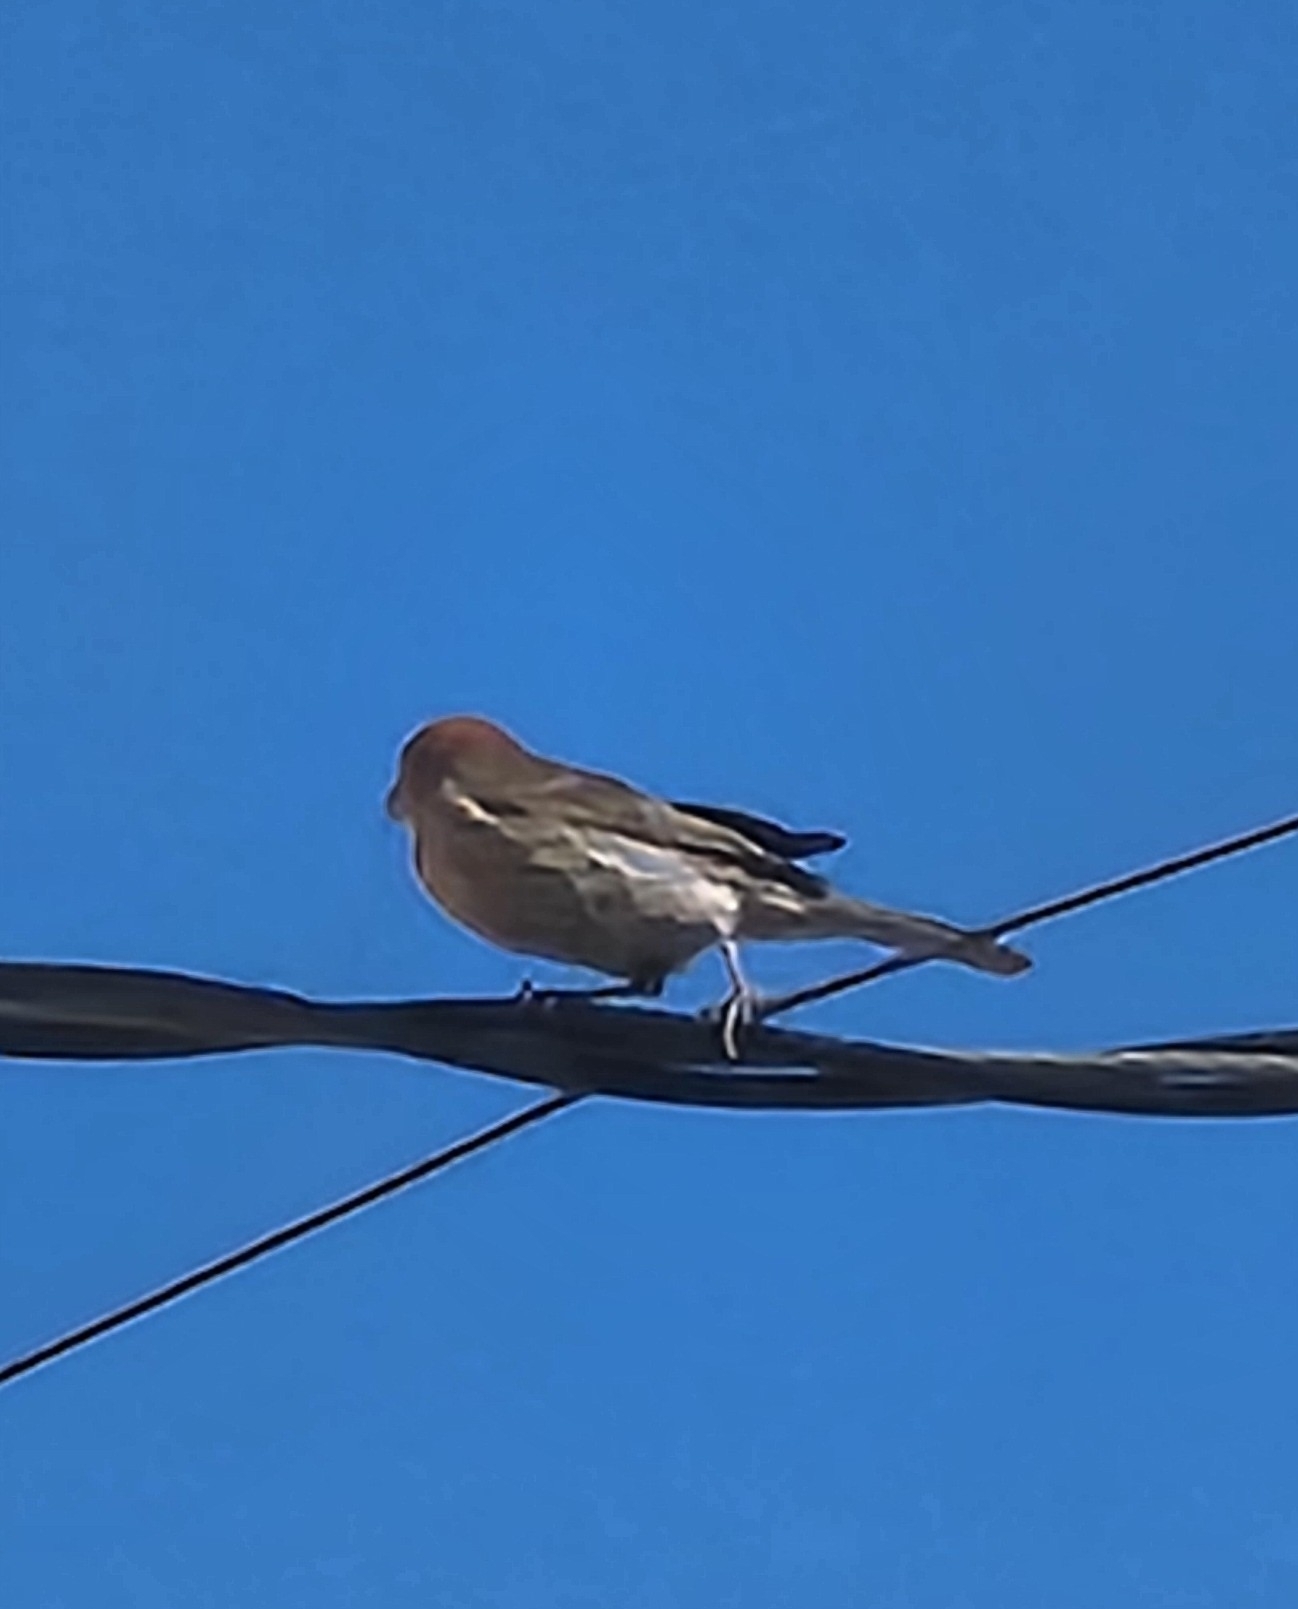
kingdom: Animalia
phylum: Chordata
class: Aves
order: Passeriformes
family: Fringillidae
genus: Haemorhous
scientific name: Haemorhous mexicanus
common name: House finch
